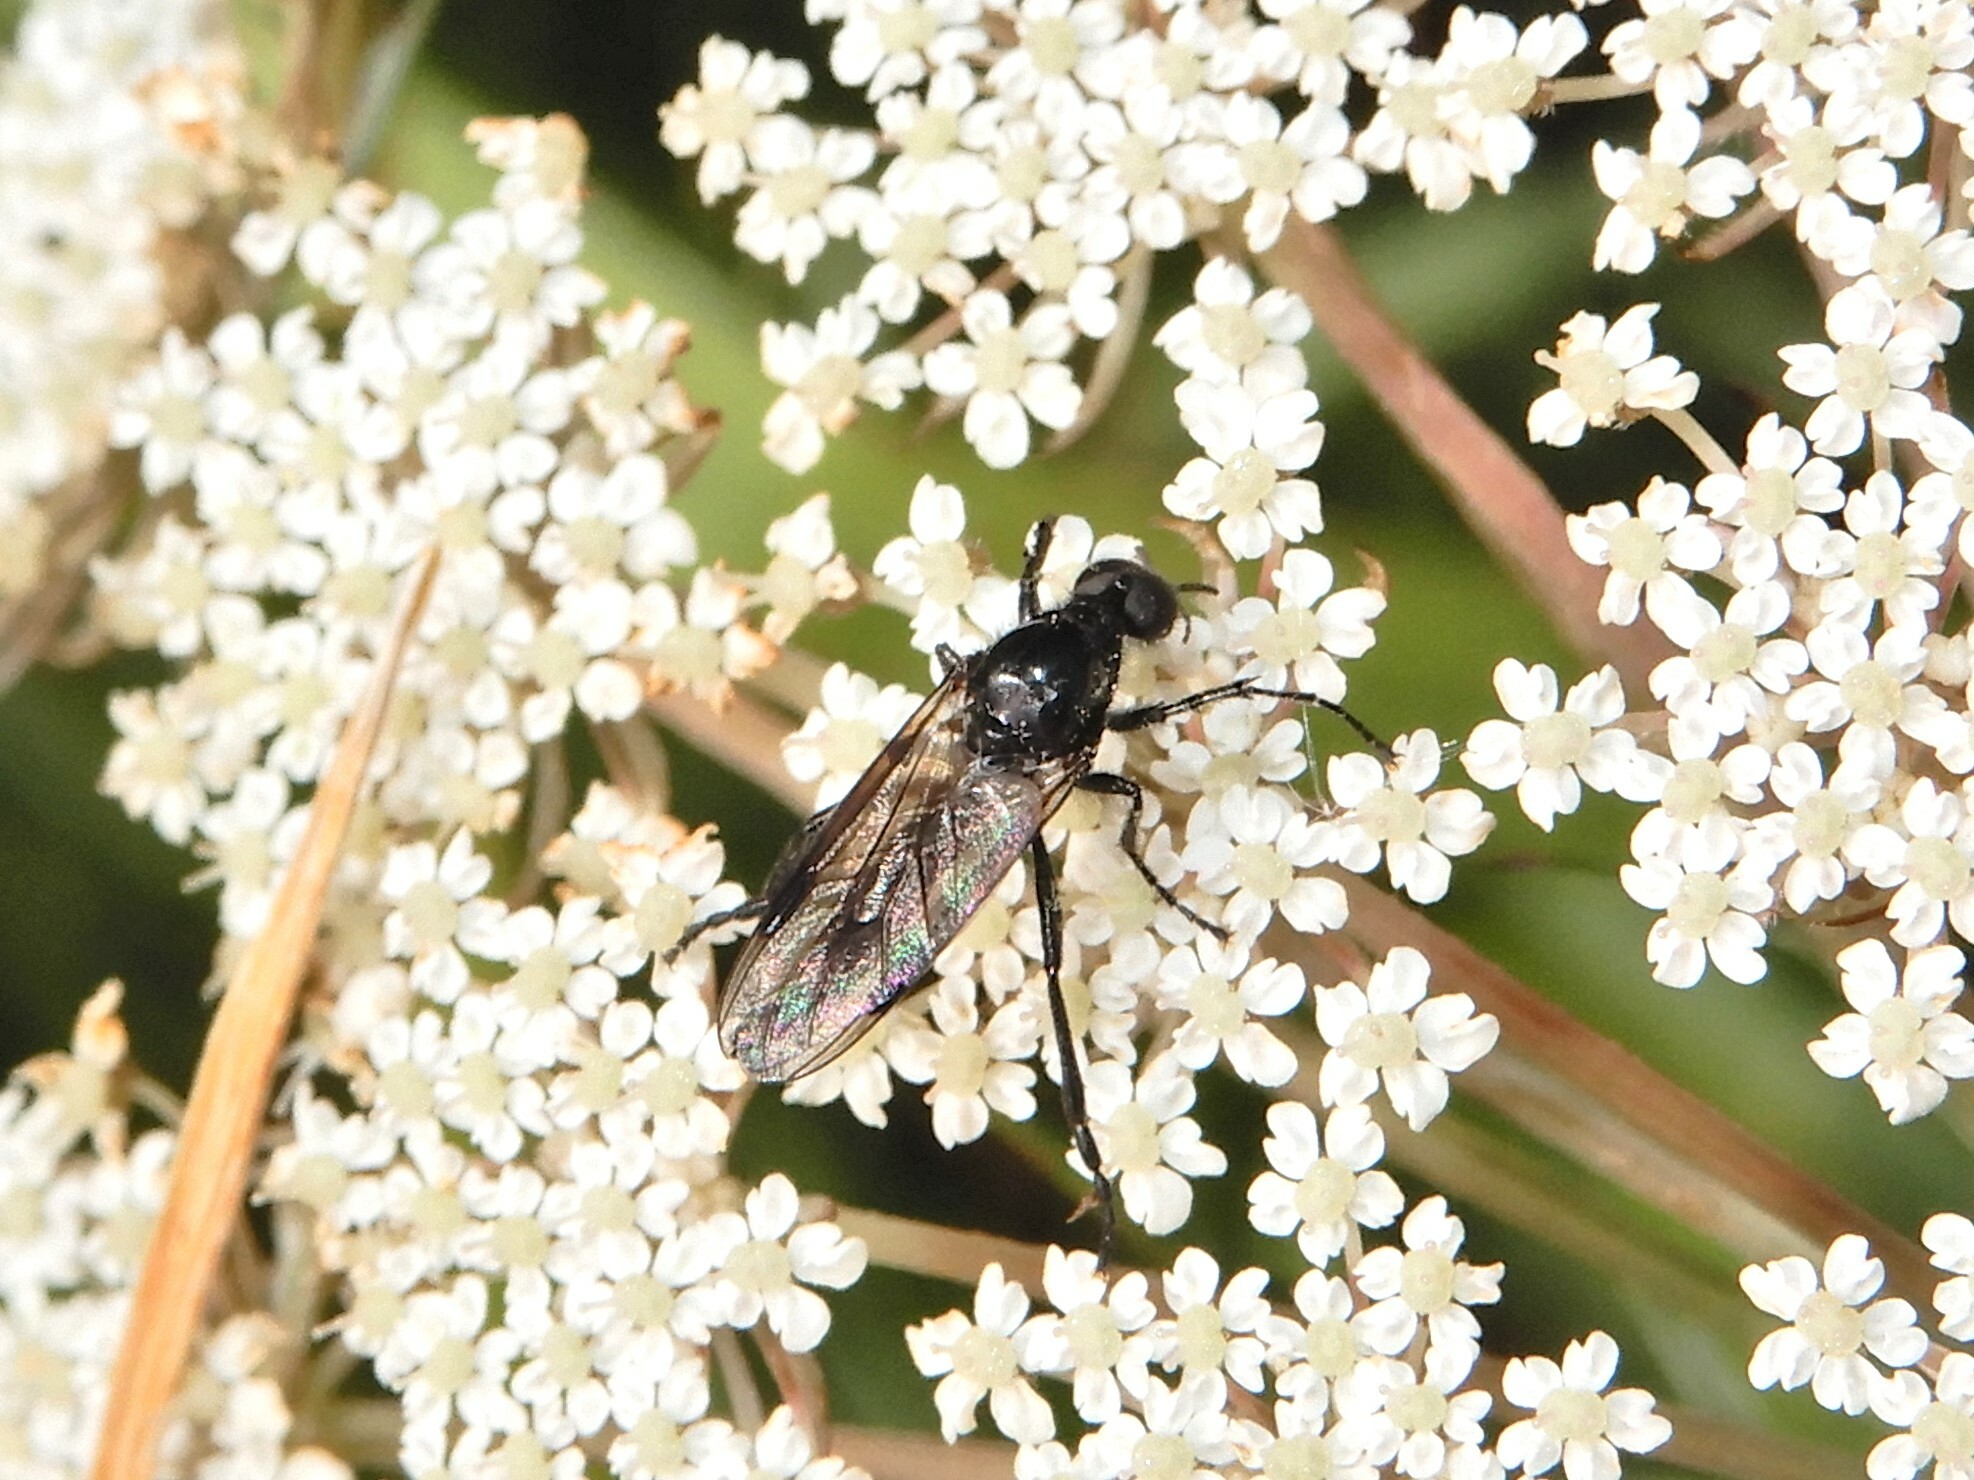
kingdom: Animalia
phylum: Arthropoda
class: Insecta
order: Diptera
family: Bibionidae
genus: Dilophus
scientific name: Dilophus nigrostigma
